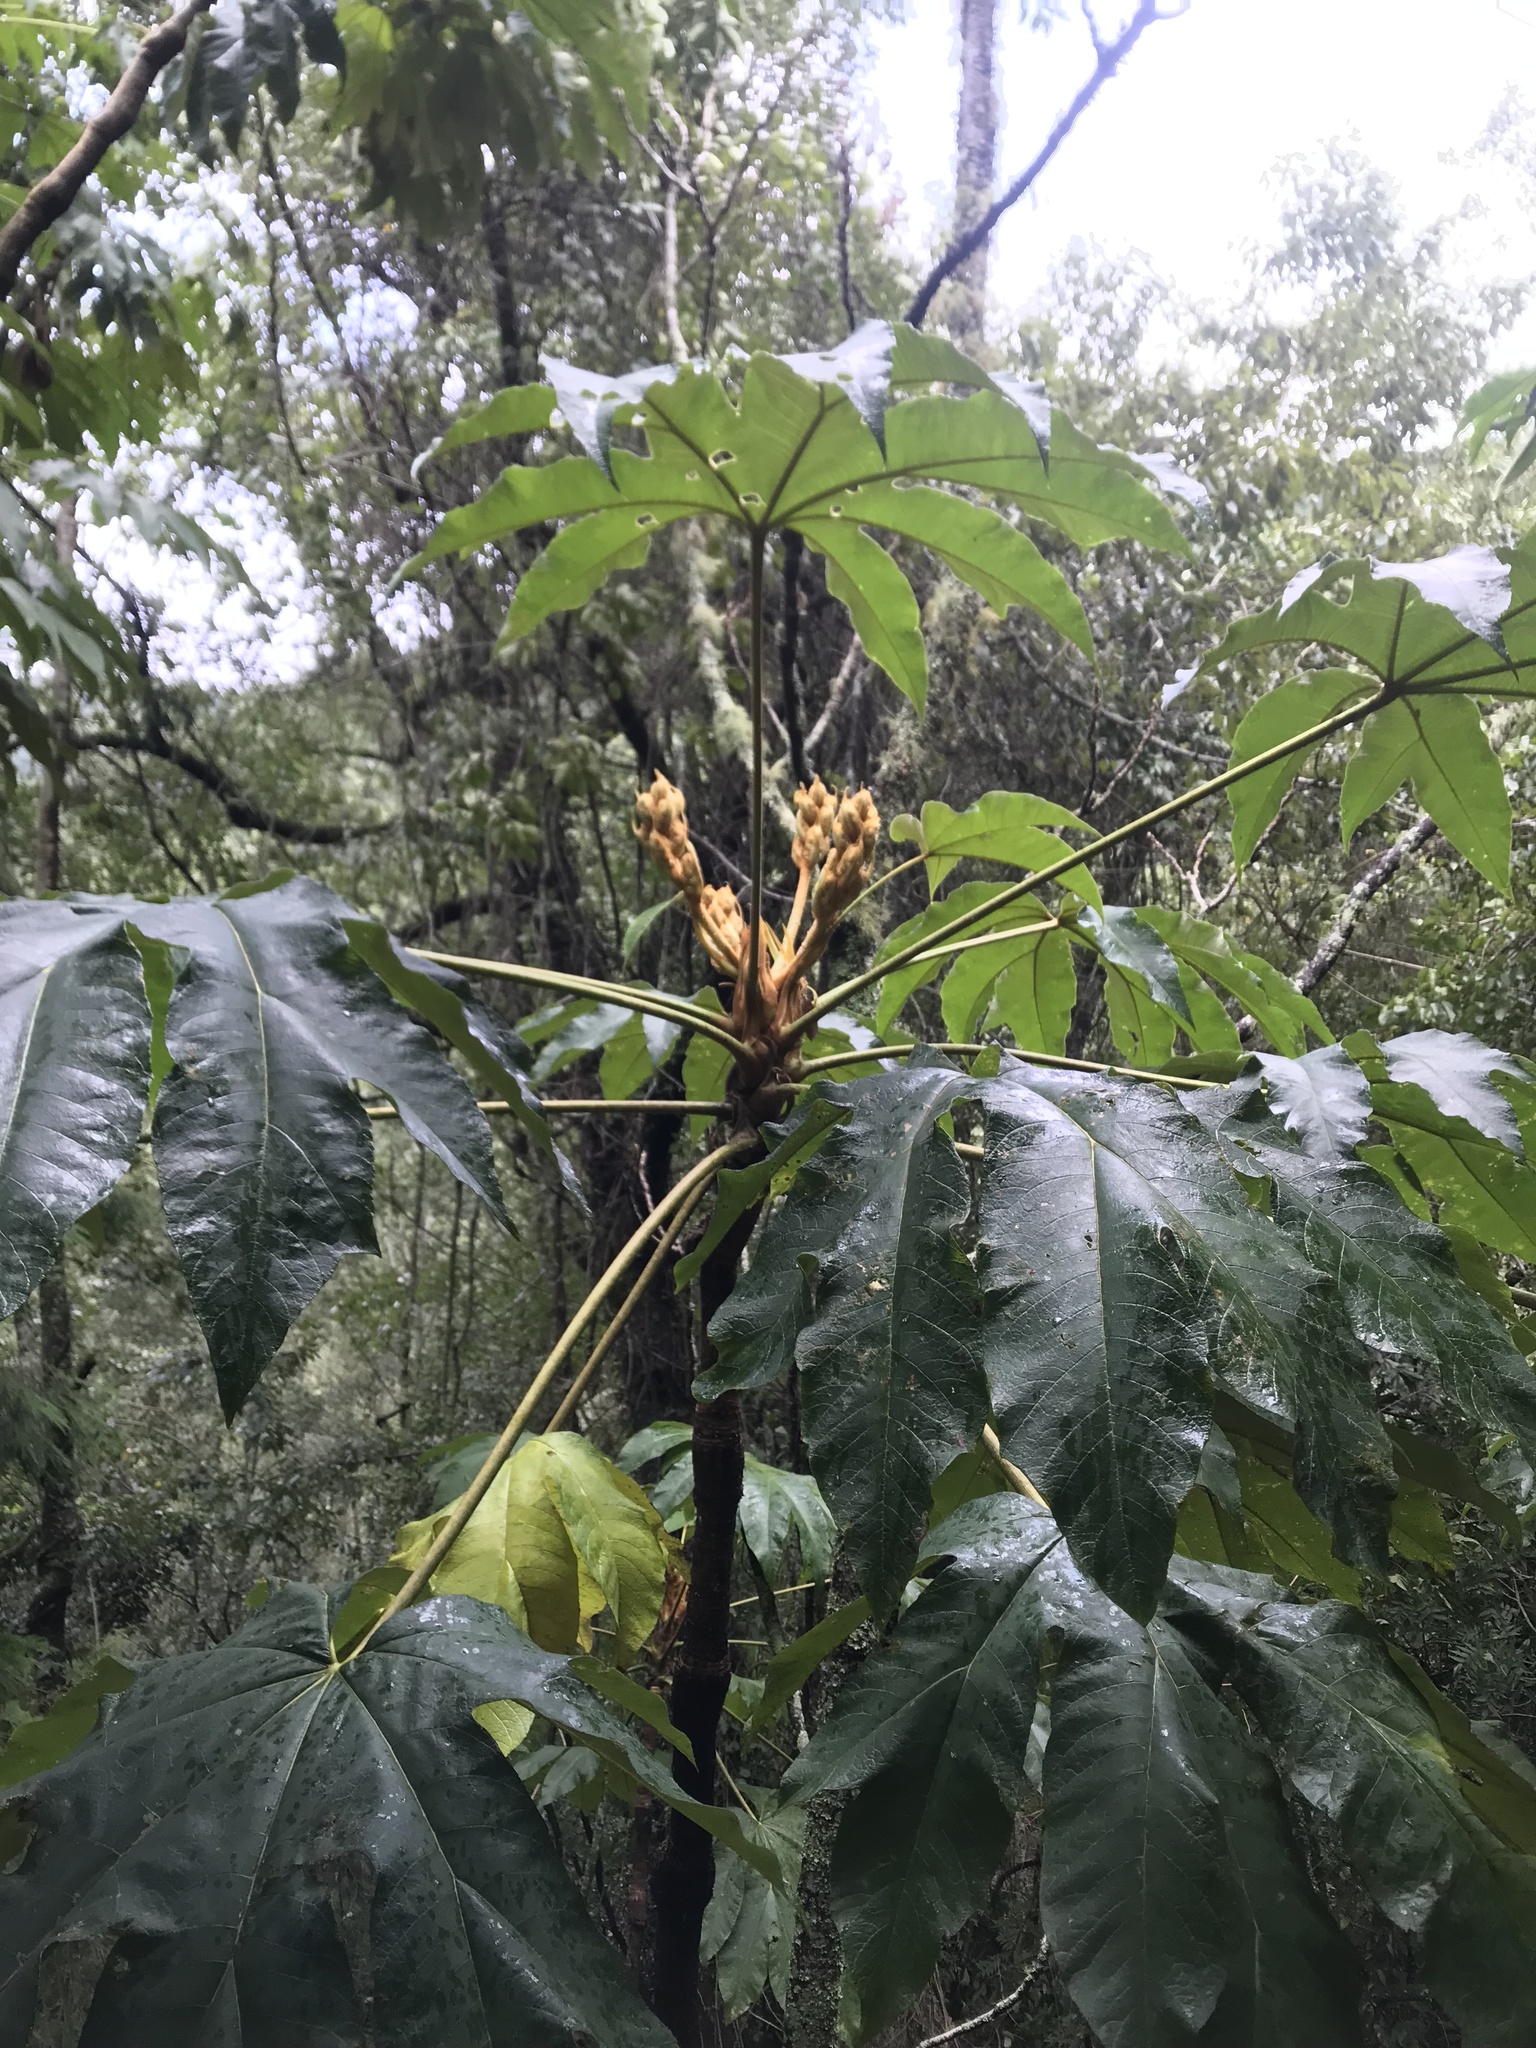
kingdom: Plantae
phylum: Tracheophyta
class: Magnoliopsida
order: Apiales
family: Araliaceae
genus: Tetrapanax
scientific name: Tetrapanax papyrifer
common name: Rice-paper plant
